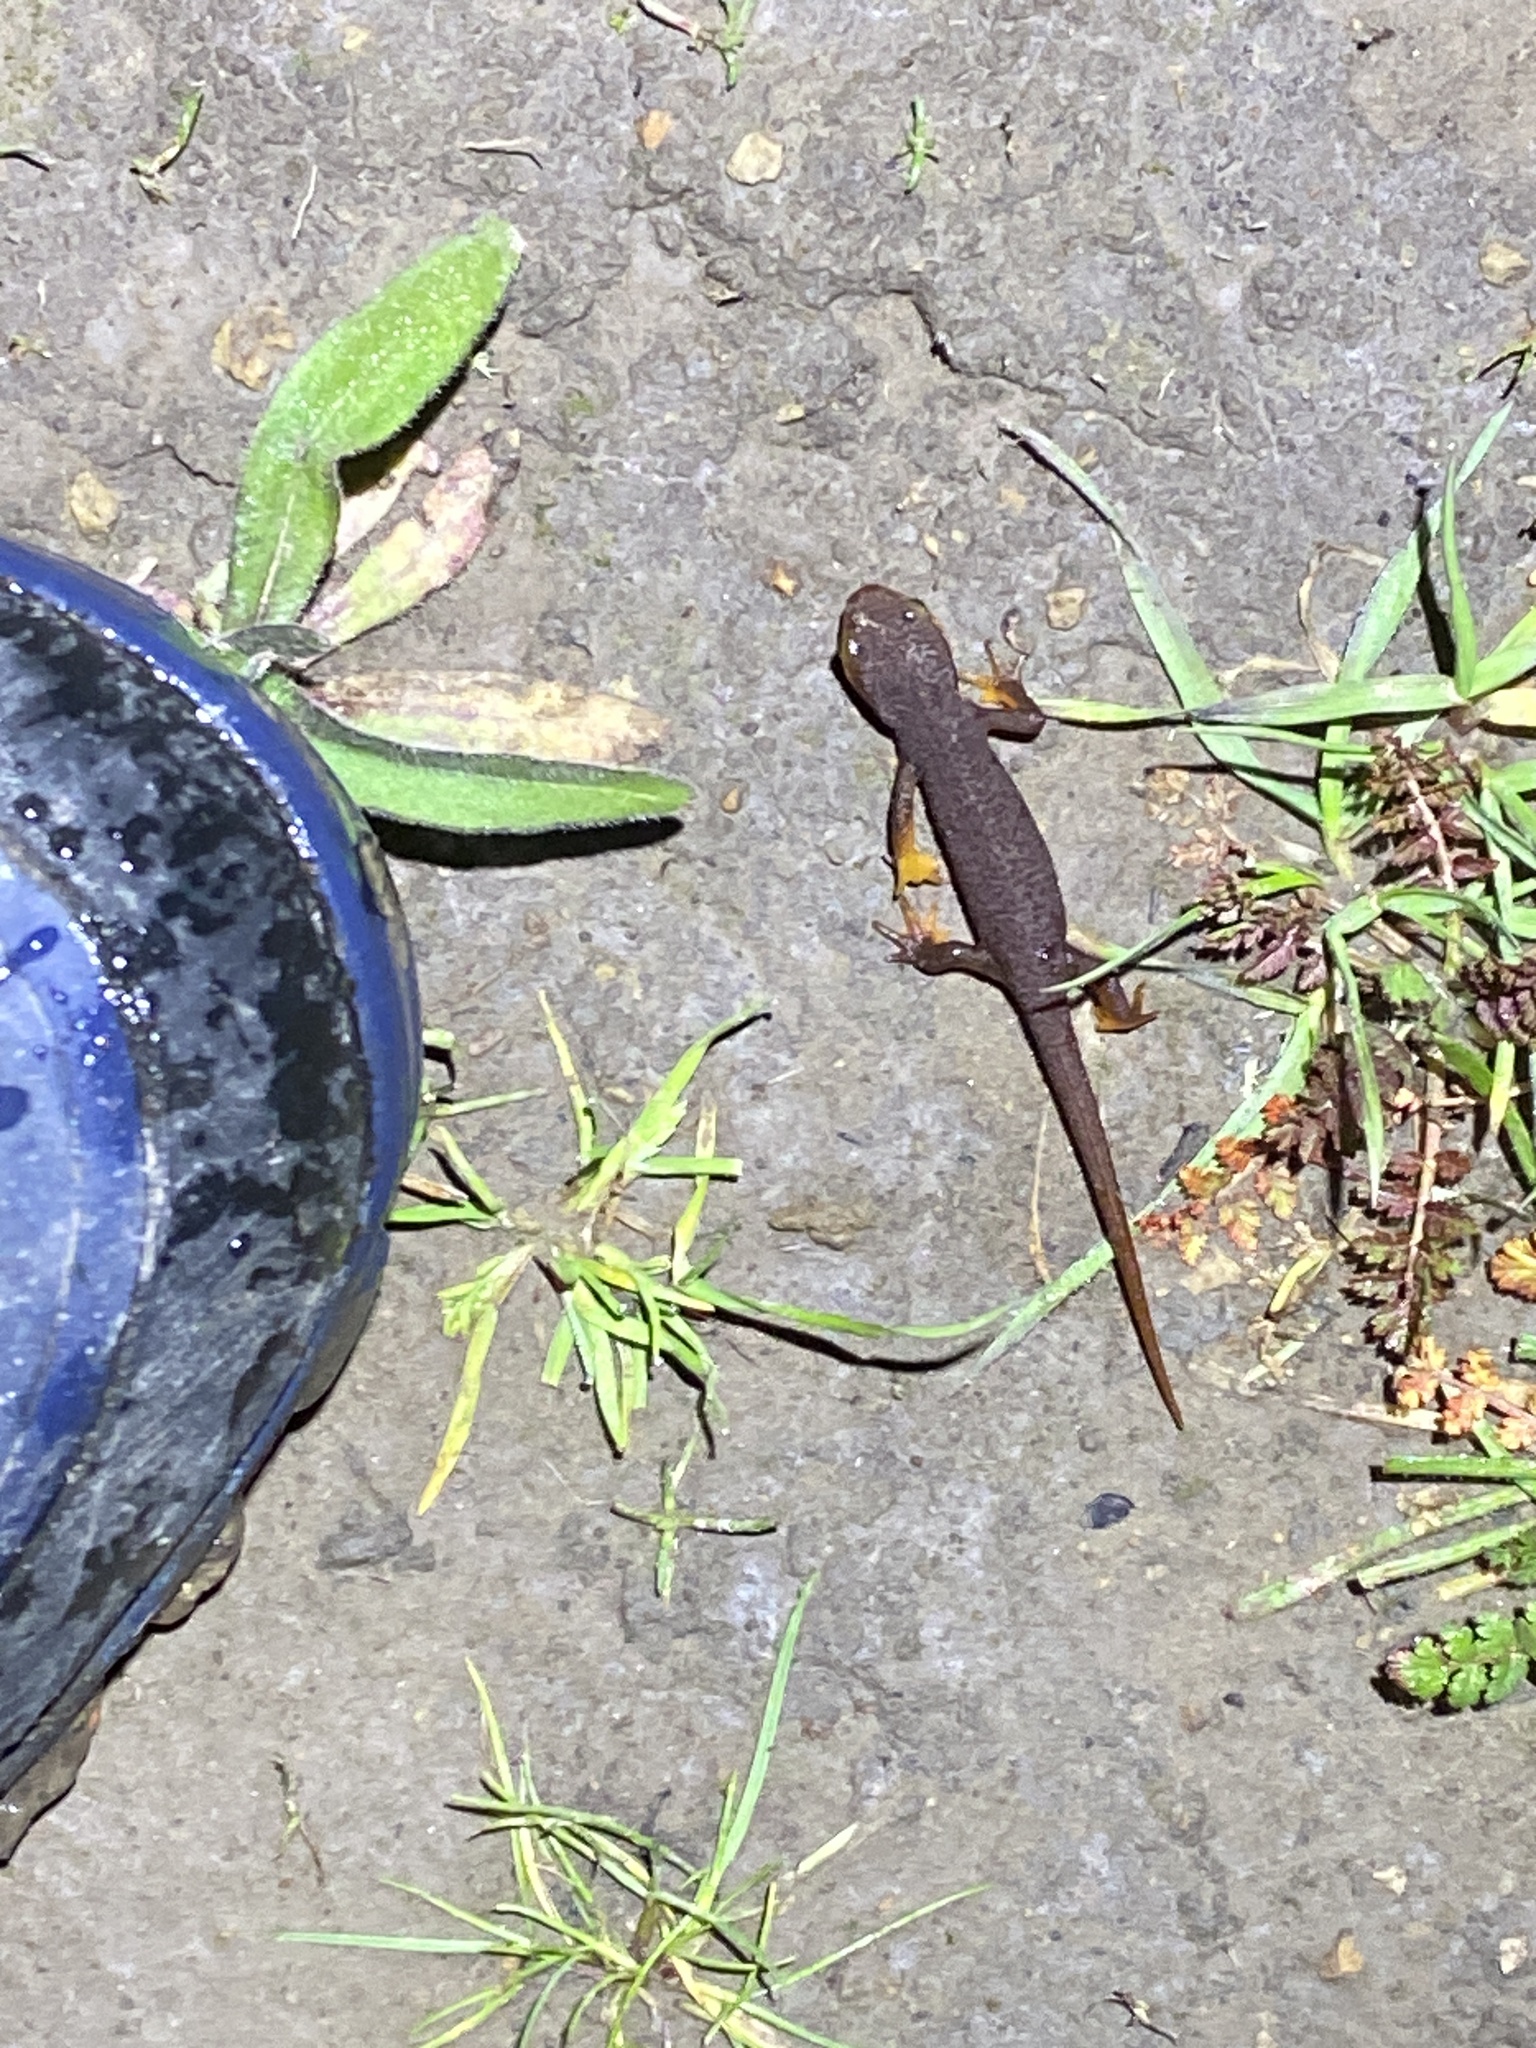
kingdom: Animalia
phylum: Chordata
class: Amphibia
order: Caudata
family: Salamandridae
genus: Taricha
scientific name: Taricha torosa
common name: California newt
